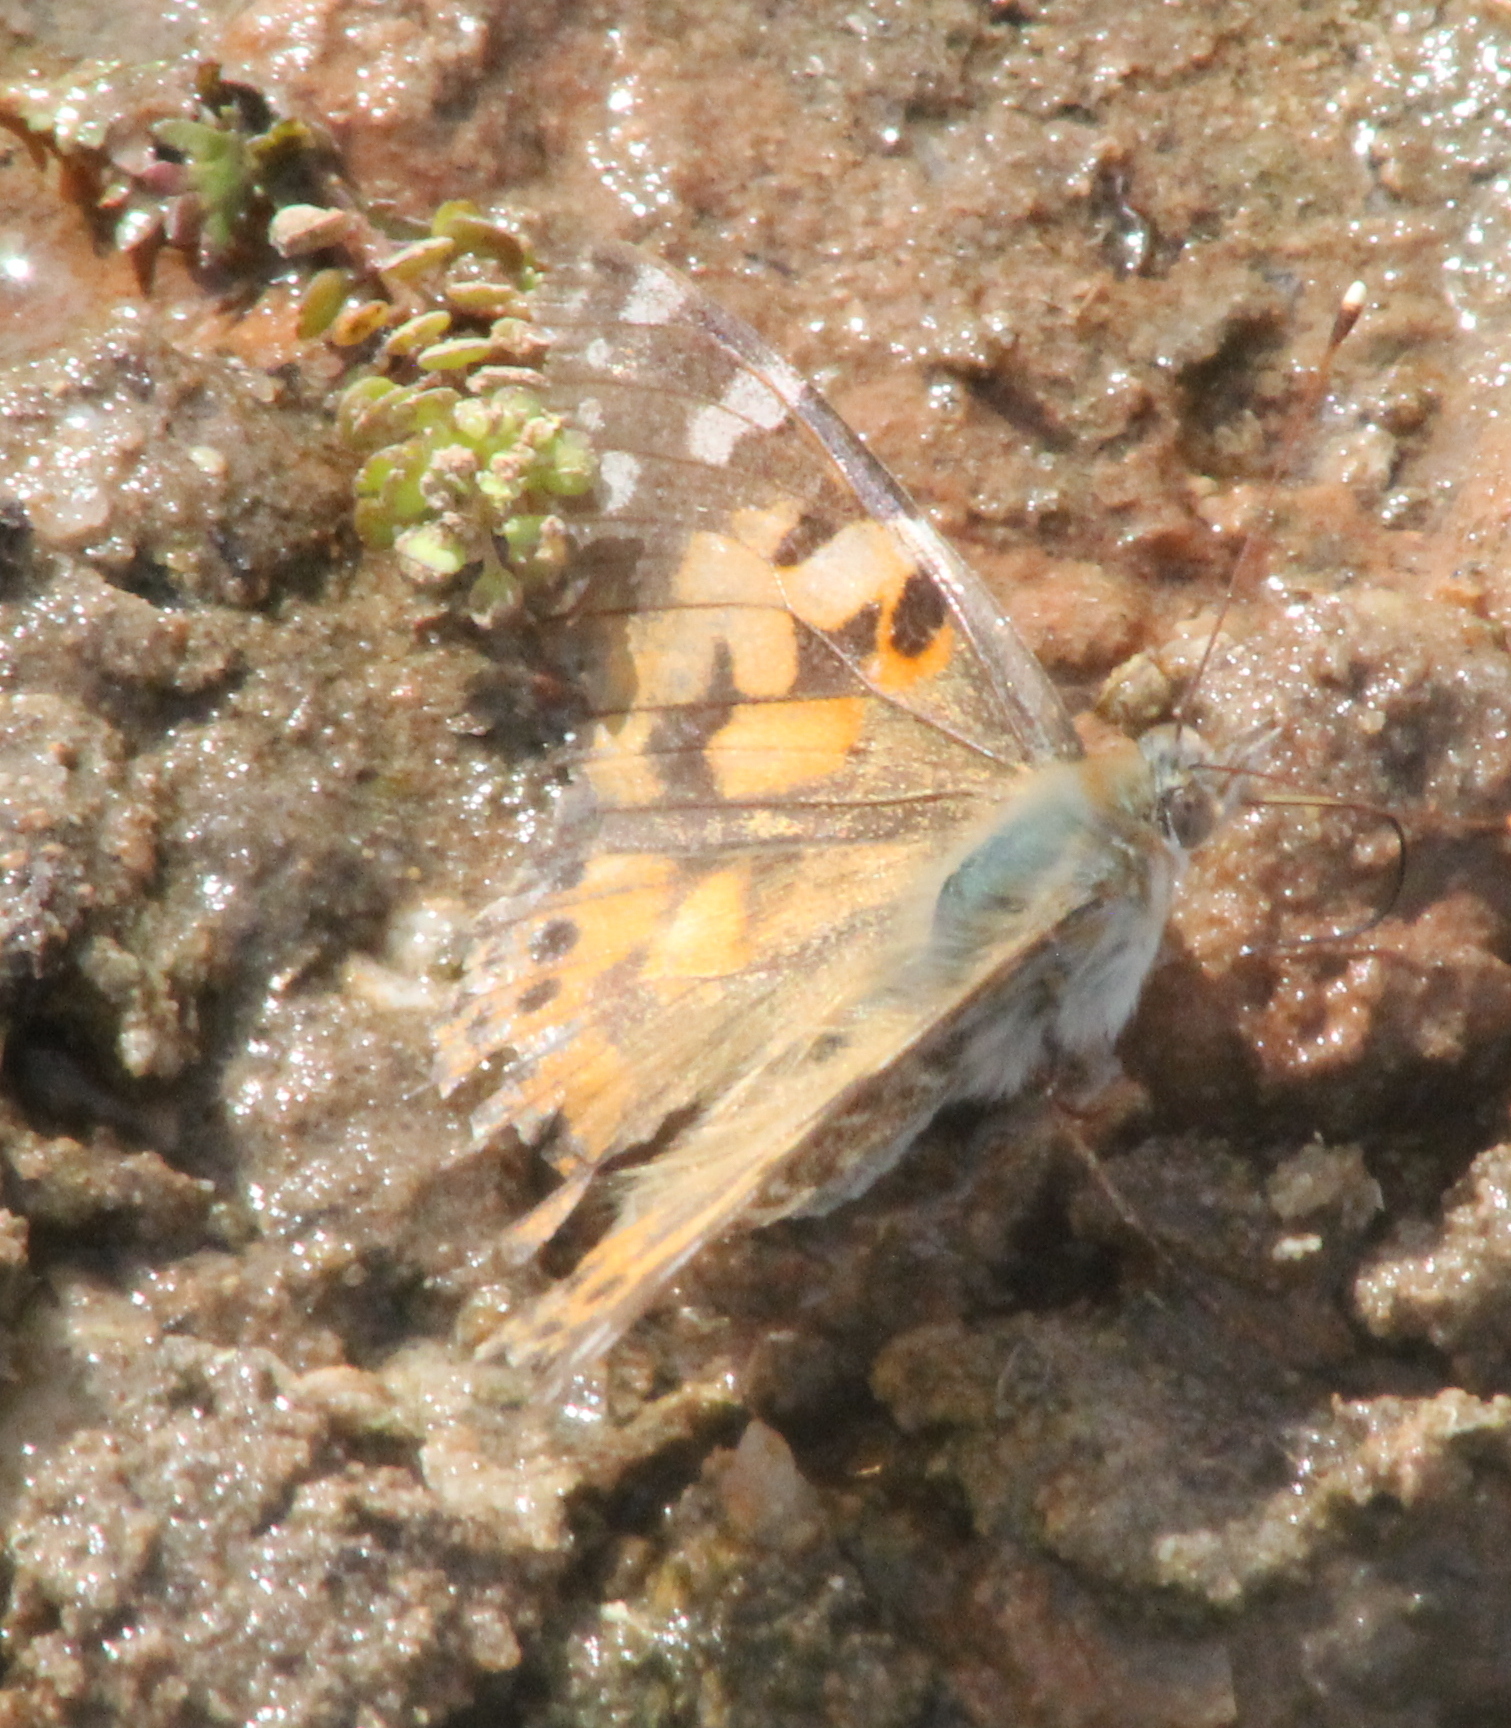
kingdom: Animalia
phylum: Arthropoda
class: Insecta
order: Lepidoptera
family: Nymphalidae
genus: Vanessa
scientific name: Vanessa cardui
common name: Painted lady
